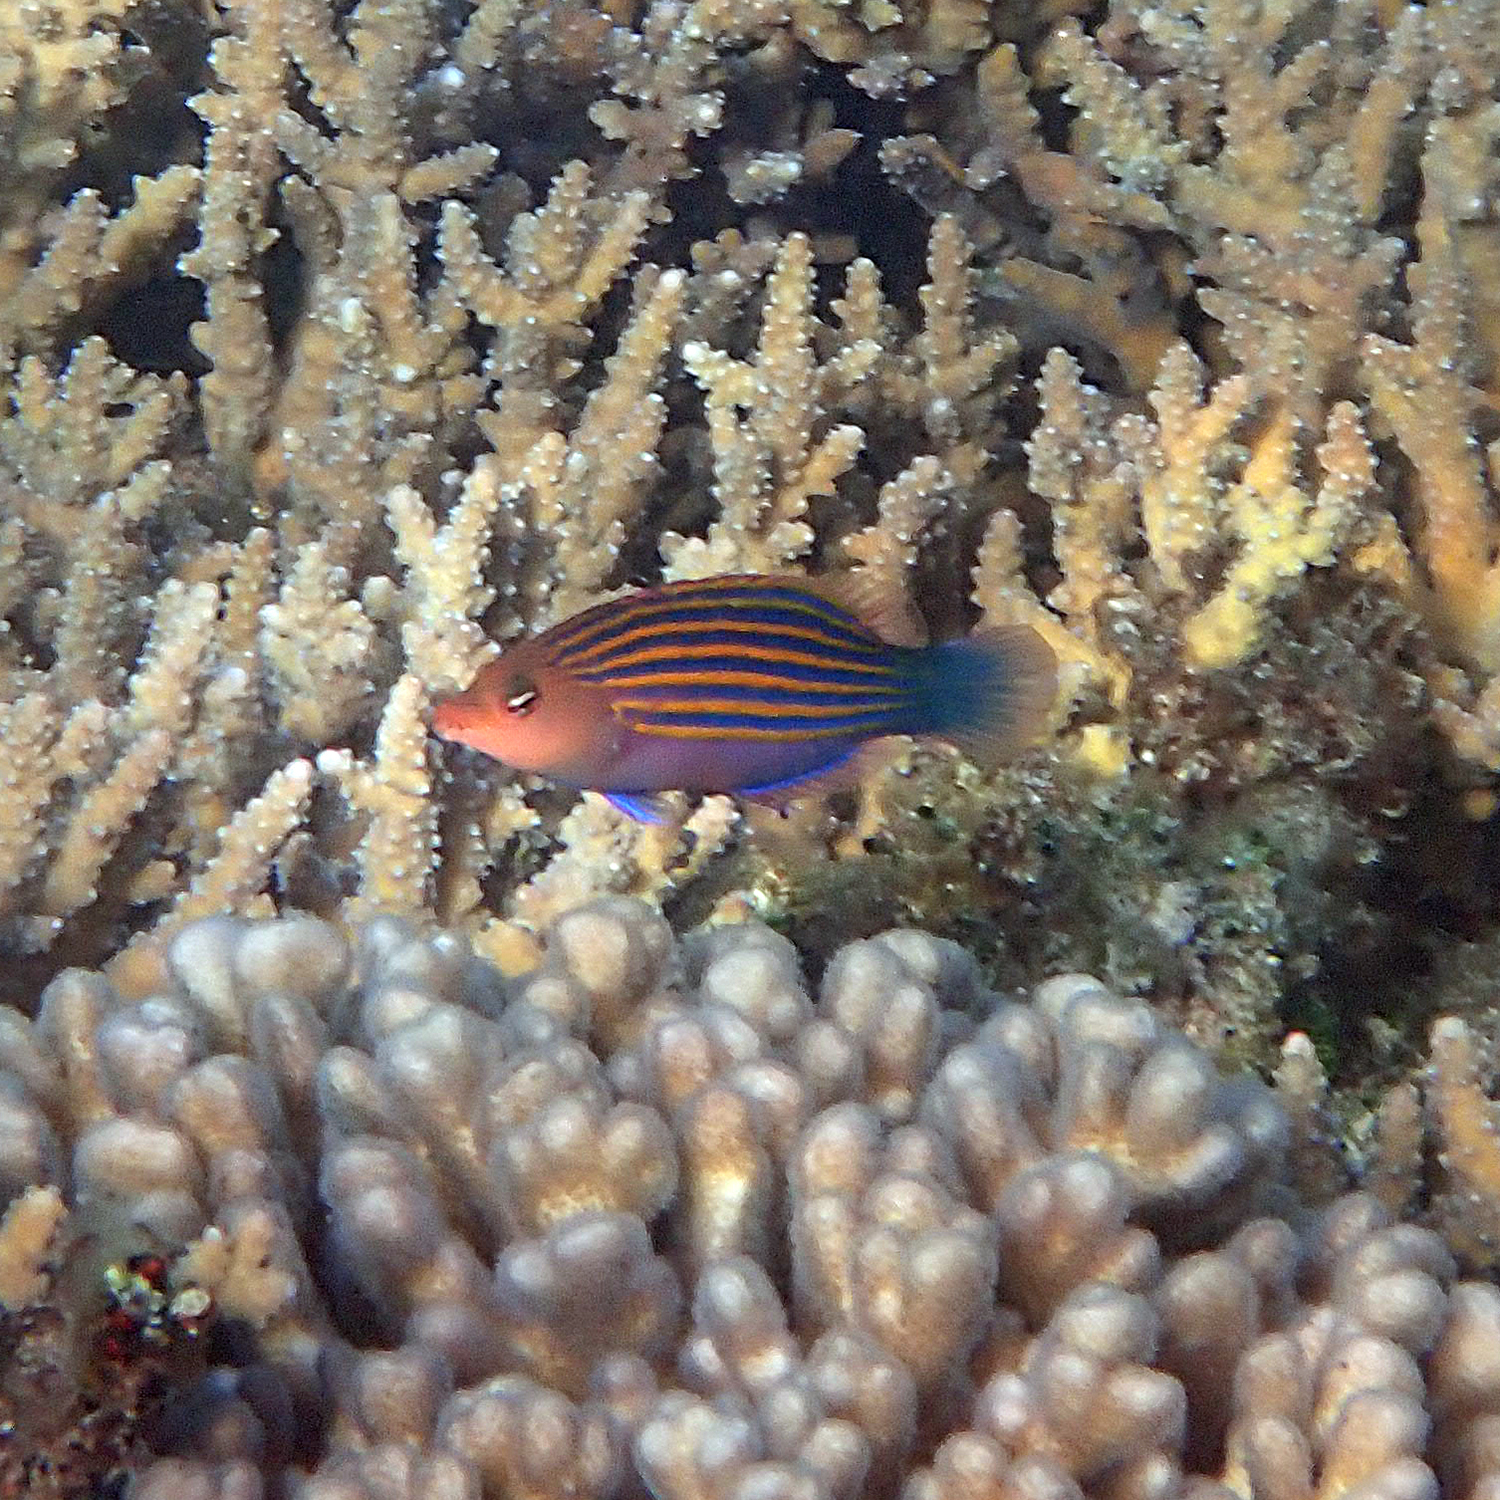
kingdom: Animalia
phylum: Chordata
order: Perciformes
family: Labridae
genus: Pseudocheilinus
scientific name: Pseudocheilinus hexataenia
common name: Sixline wrasse
